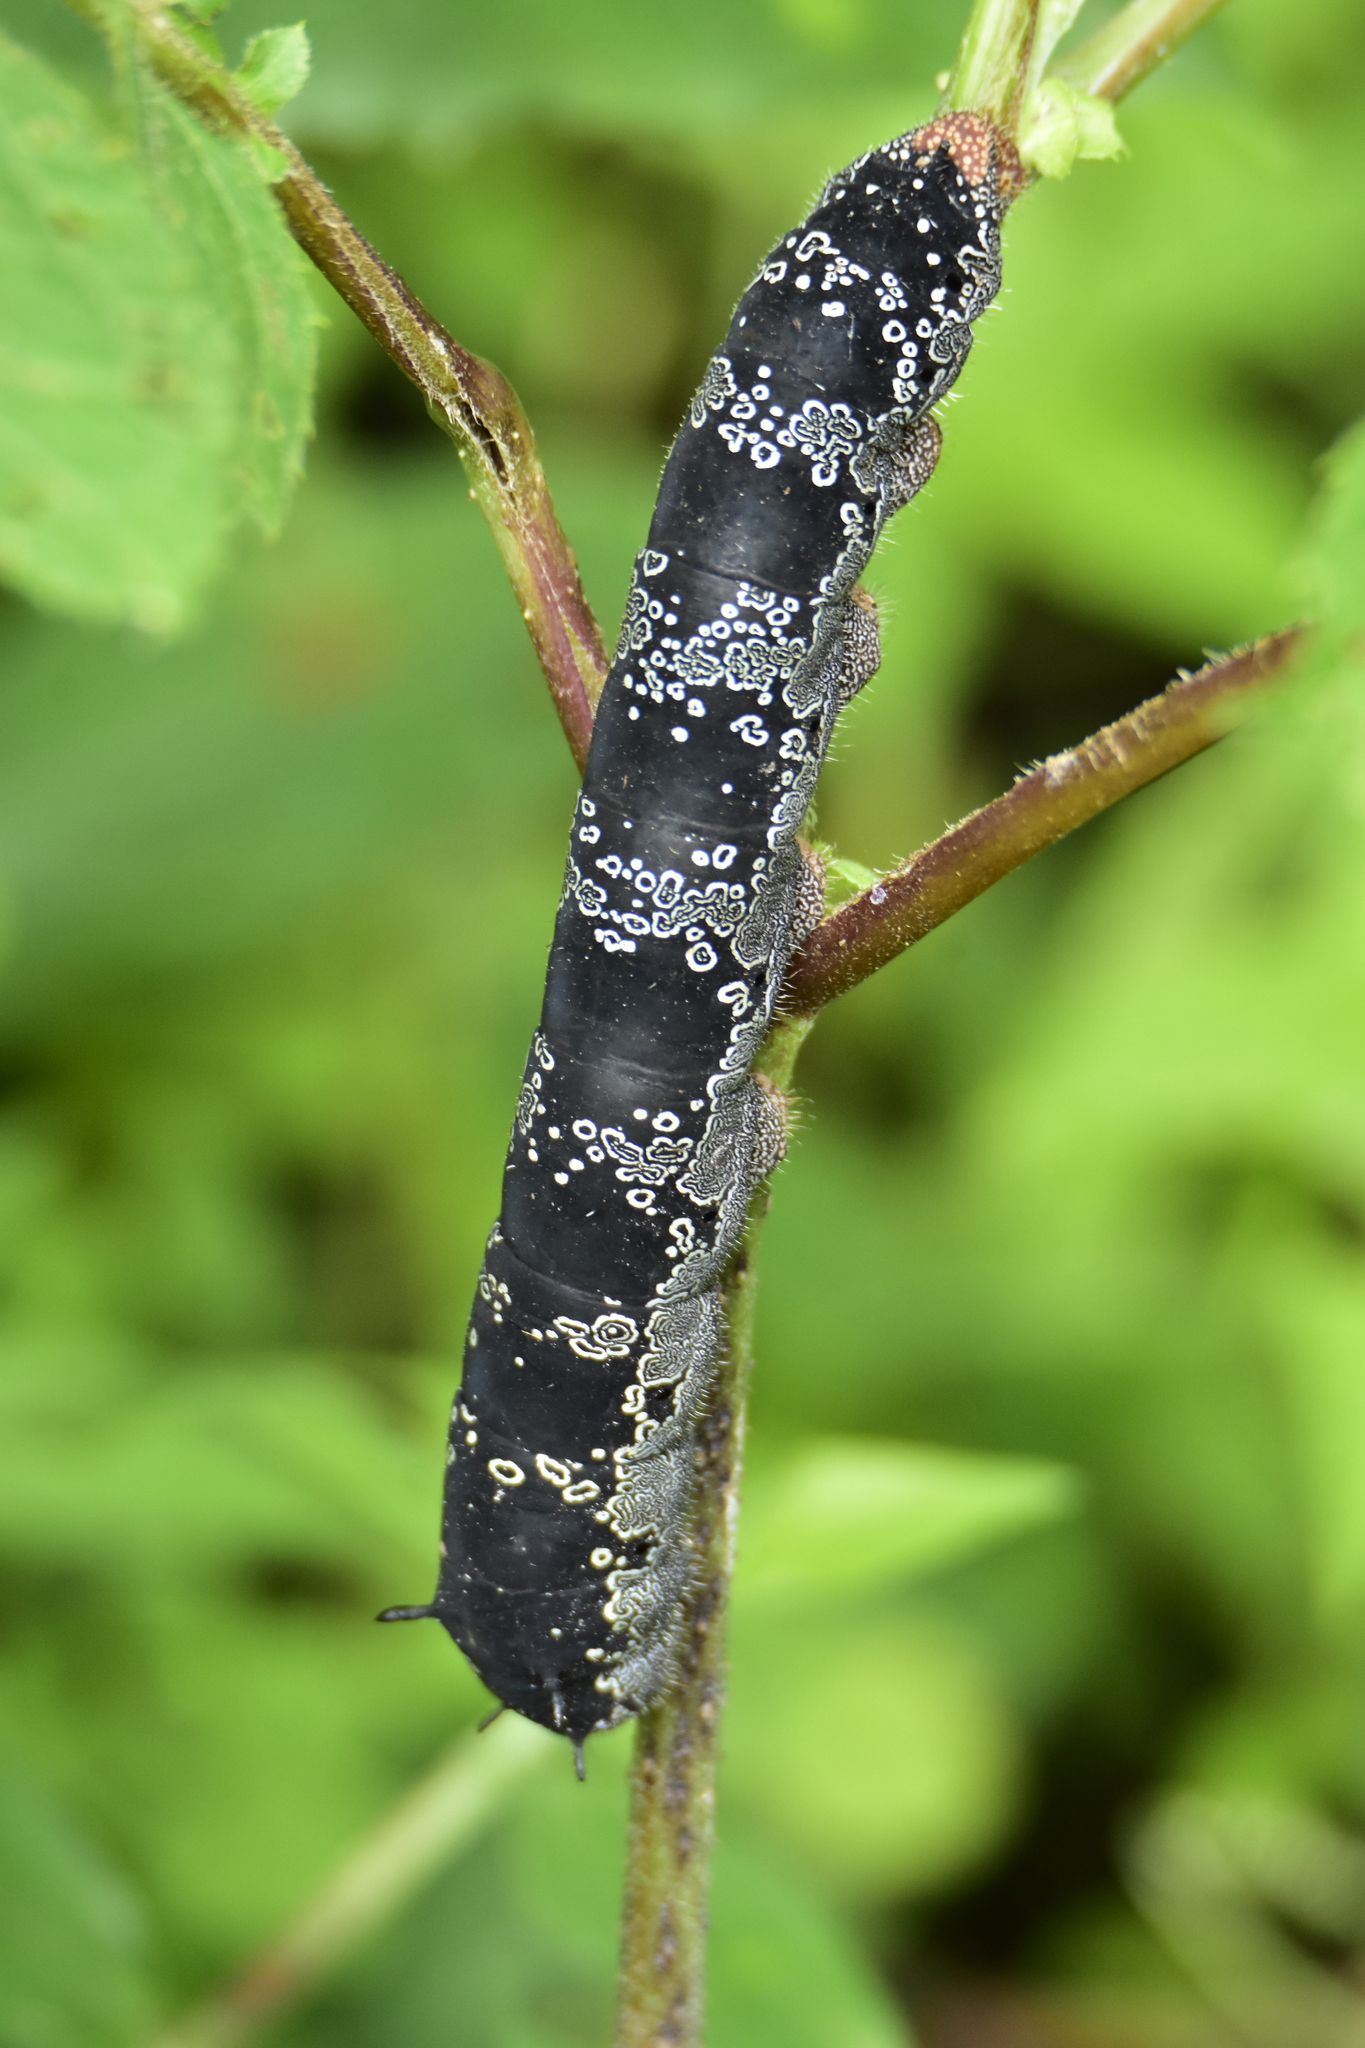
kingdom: Animalia
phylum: Arthropoda
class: Insecta
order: Lepidoptera
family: Saturniidae
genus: Arsenura
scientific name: Arsenura polyodonta
